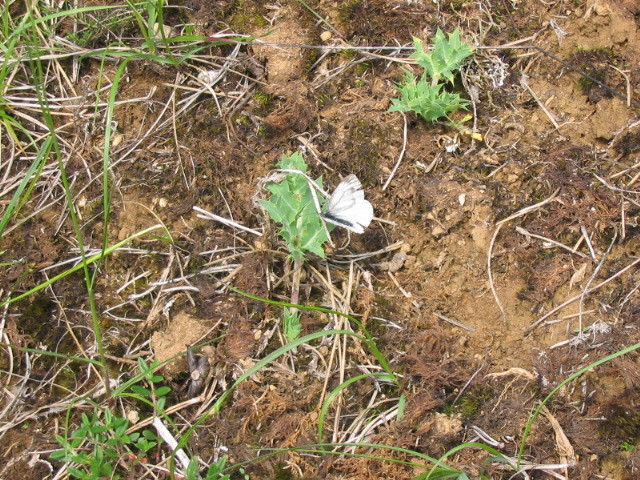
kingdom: Animalia
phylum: Arthropoda
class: Insecta
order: Lepidoptera
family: Pieridae
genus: Pieris
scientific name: Pieris napi
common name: Green-veined white
